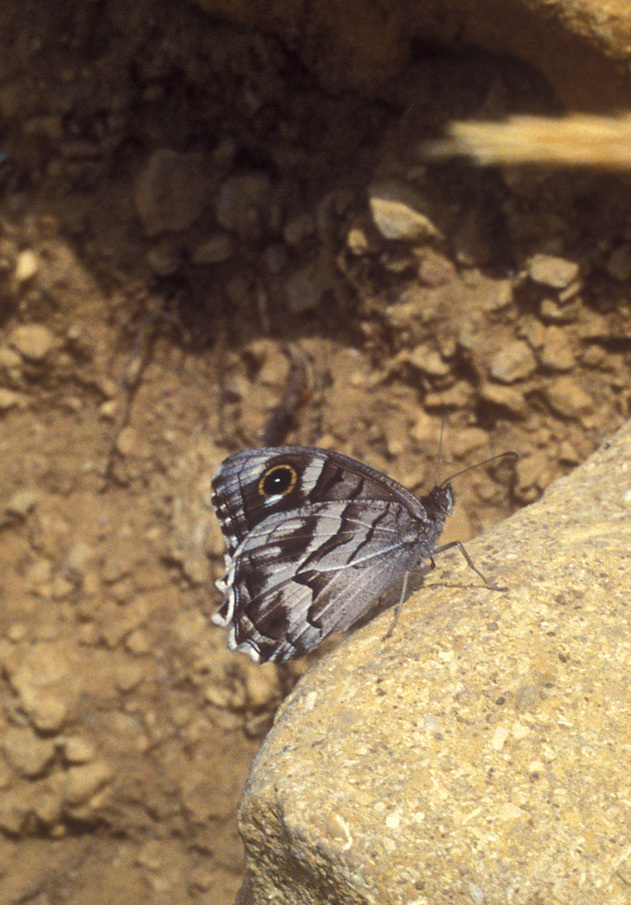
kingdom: Animalia
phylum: Arthropoda
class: Insecta
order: Lepidoptera
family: Nymphalidae
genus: Hipparchia
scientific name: Hipparchia fidia
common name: Striped grayling
